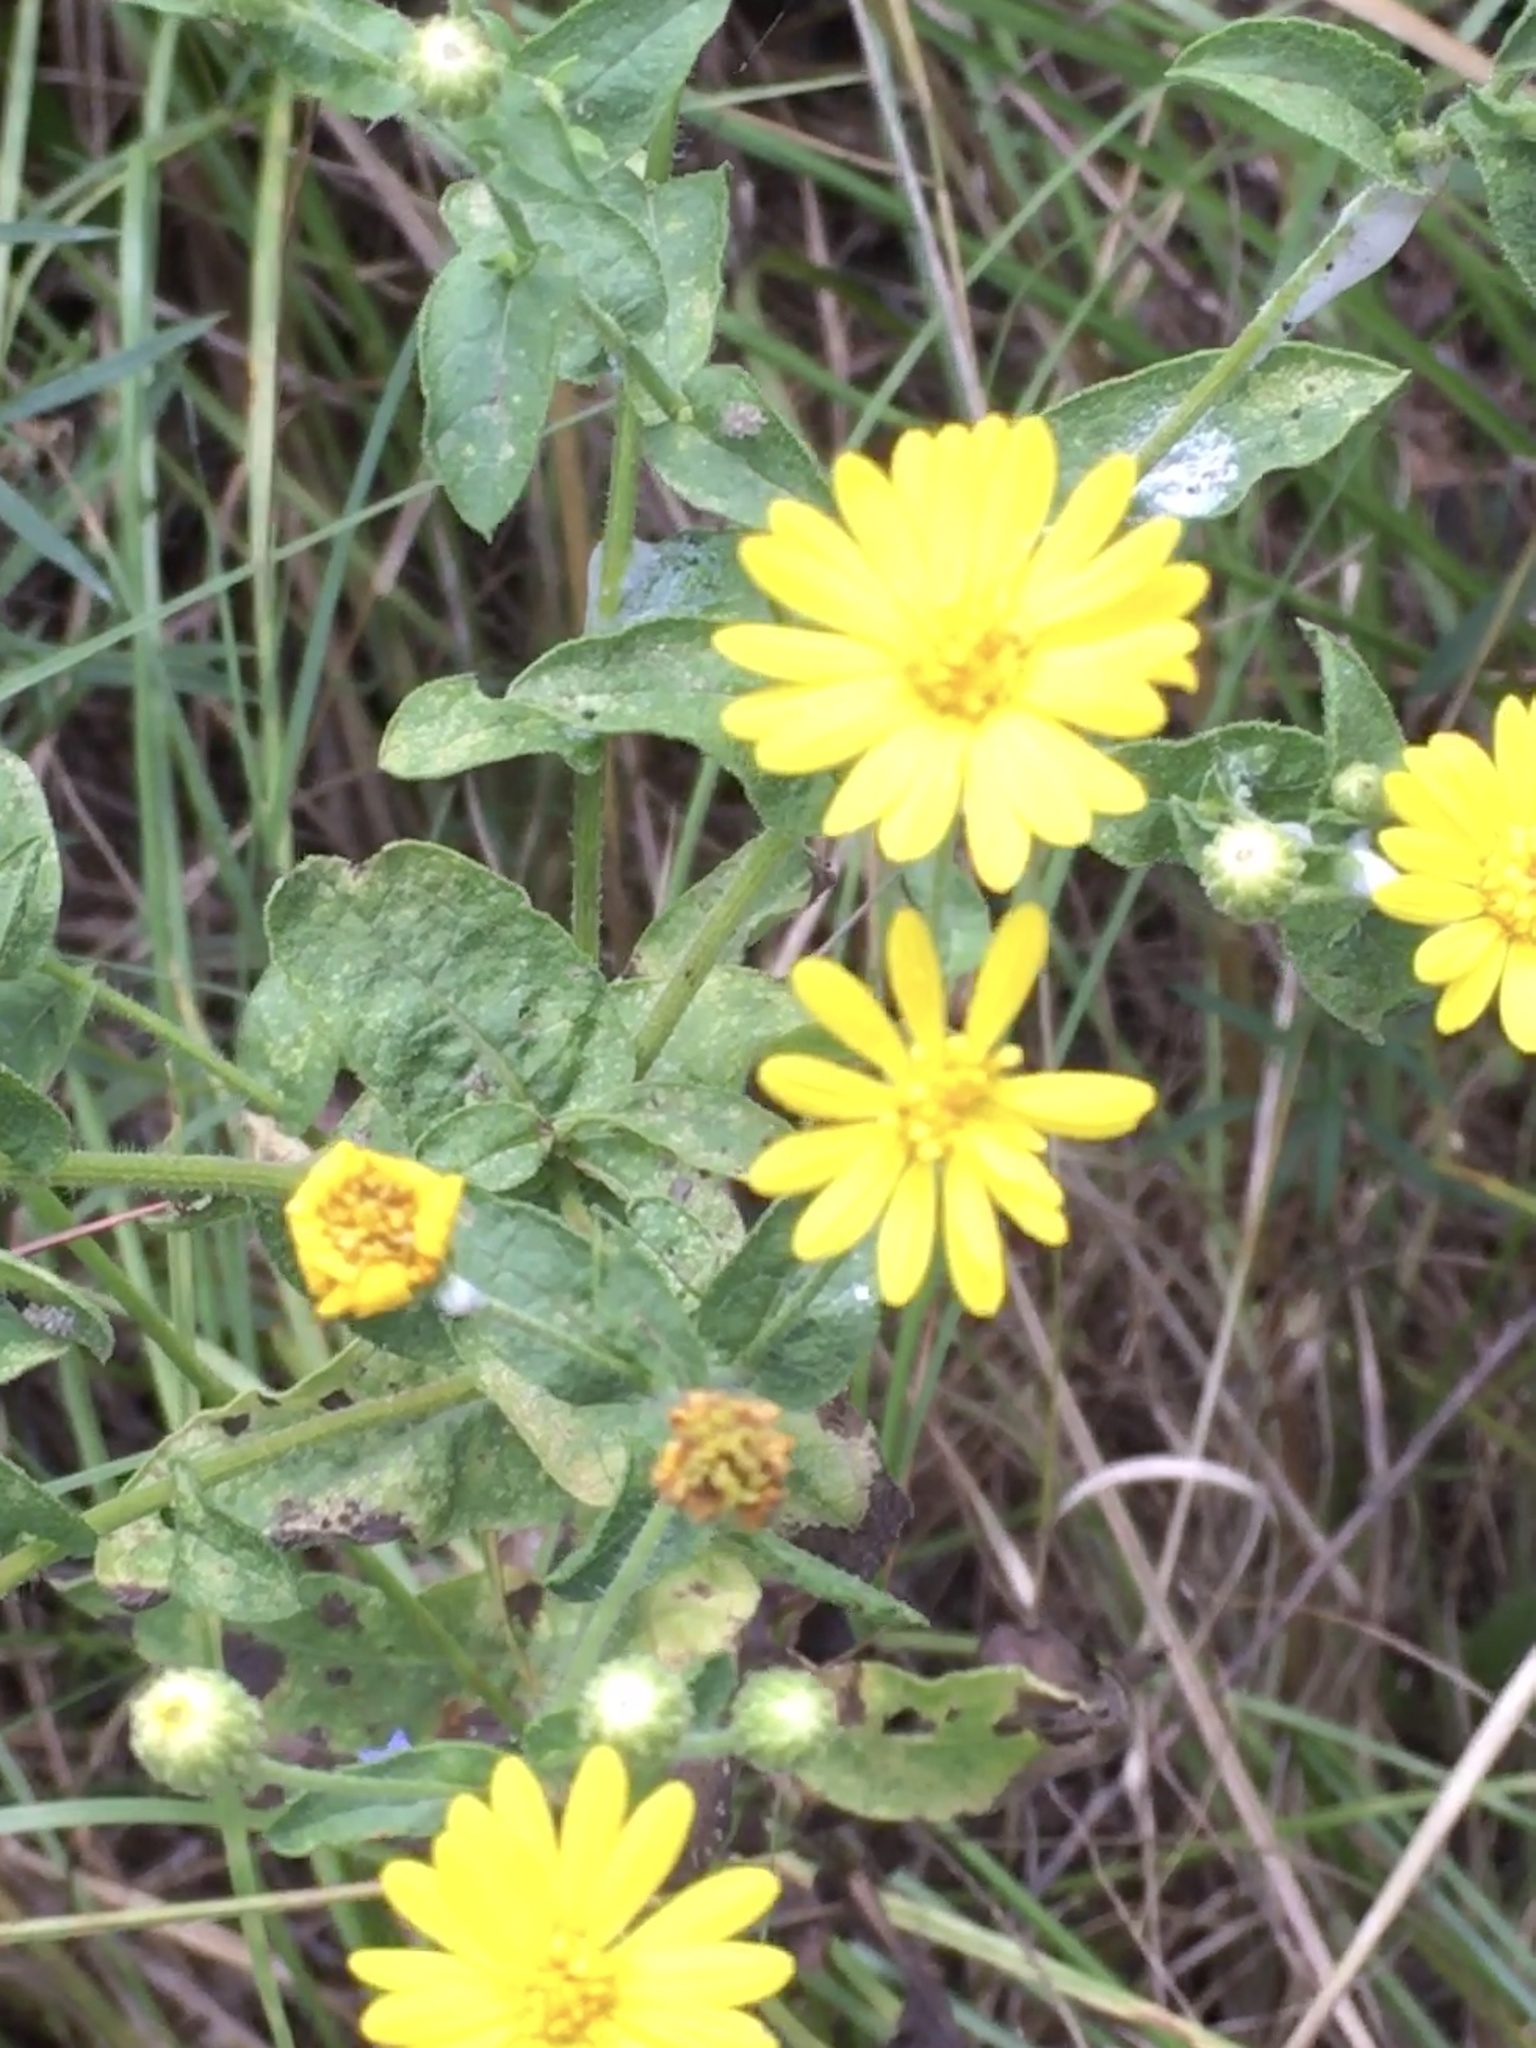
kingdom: Plantae
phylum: Tracheophyta
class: Magnoliopsida
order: Asterales
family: Asteraceae
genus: Heterotheca
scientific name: Heterotheca subaxillaris
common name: Camphorweed
